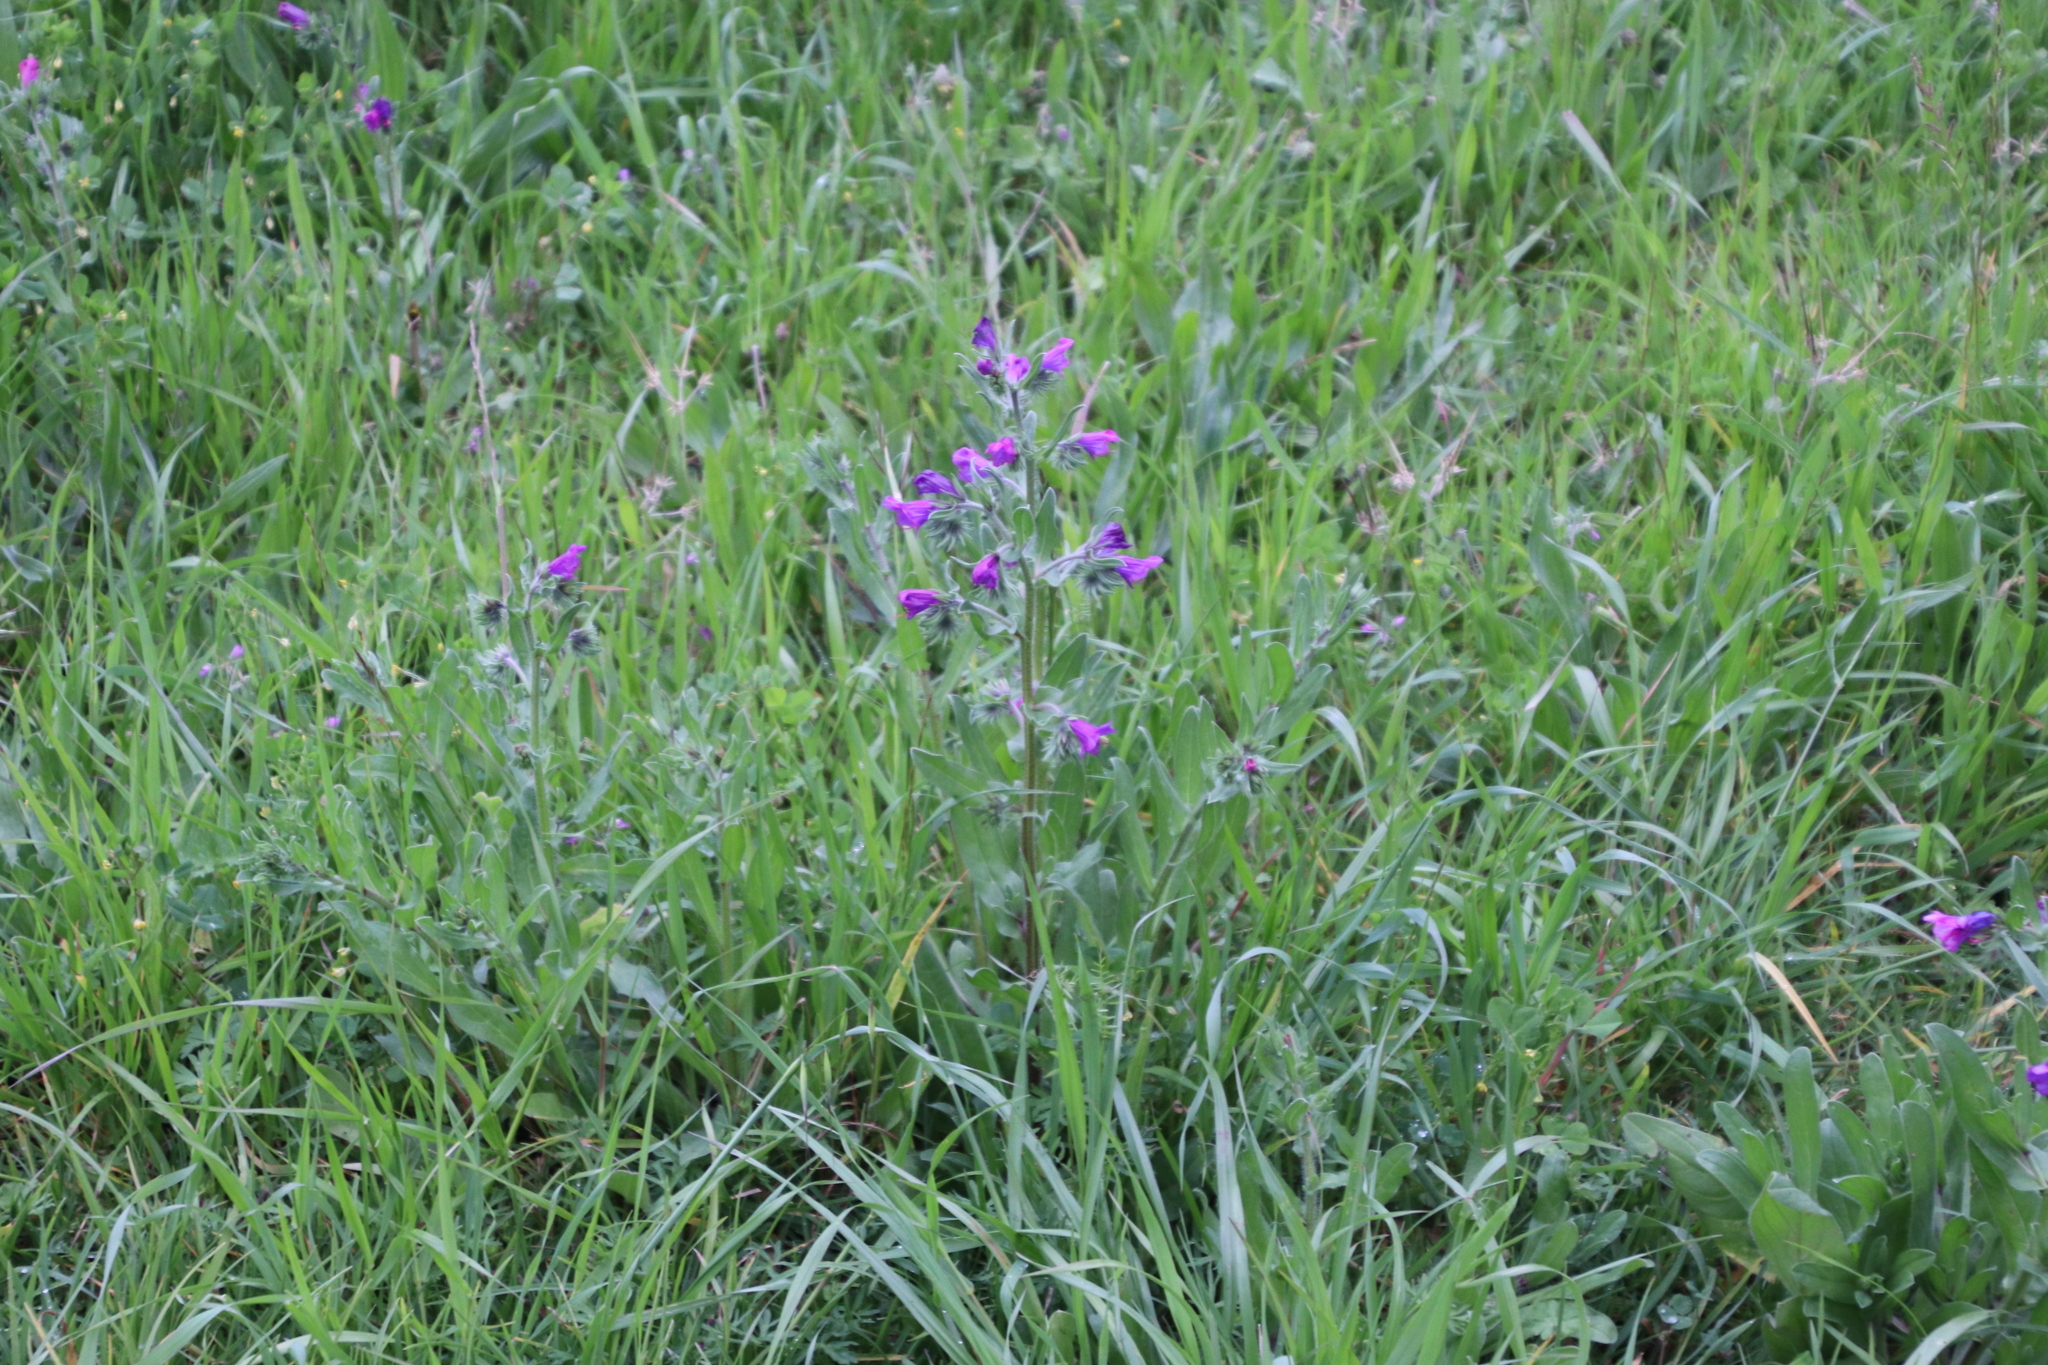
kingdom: Plantae
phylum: Tracheophyta
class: Magnoliopsida
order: Boraginales
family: Boraginaceae
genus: Echium
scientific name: Echium plantagineum
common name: Purple viper's-bugloss
